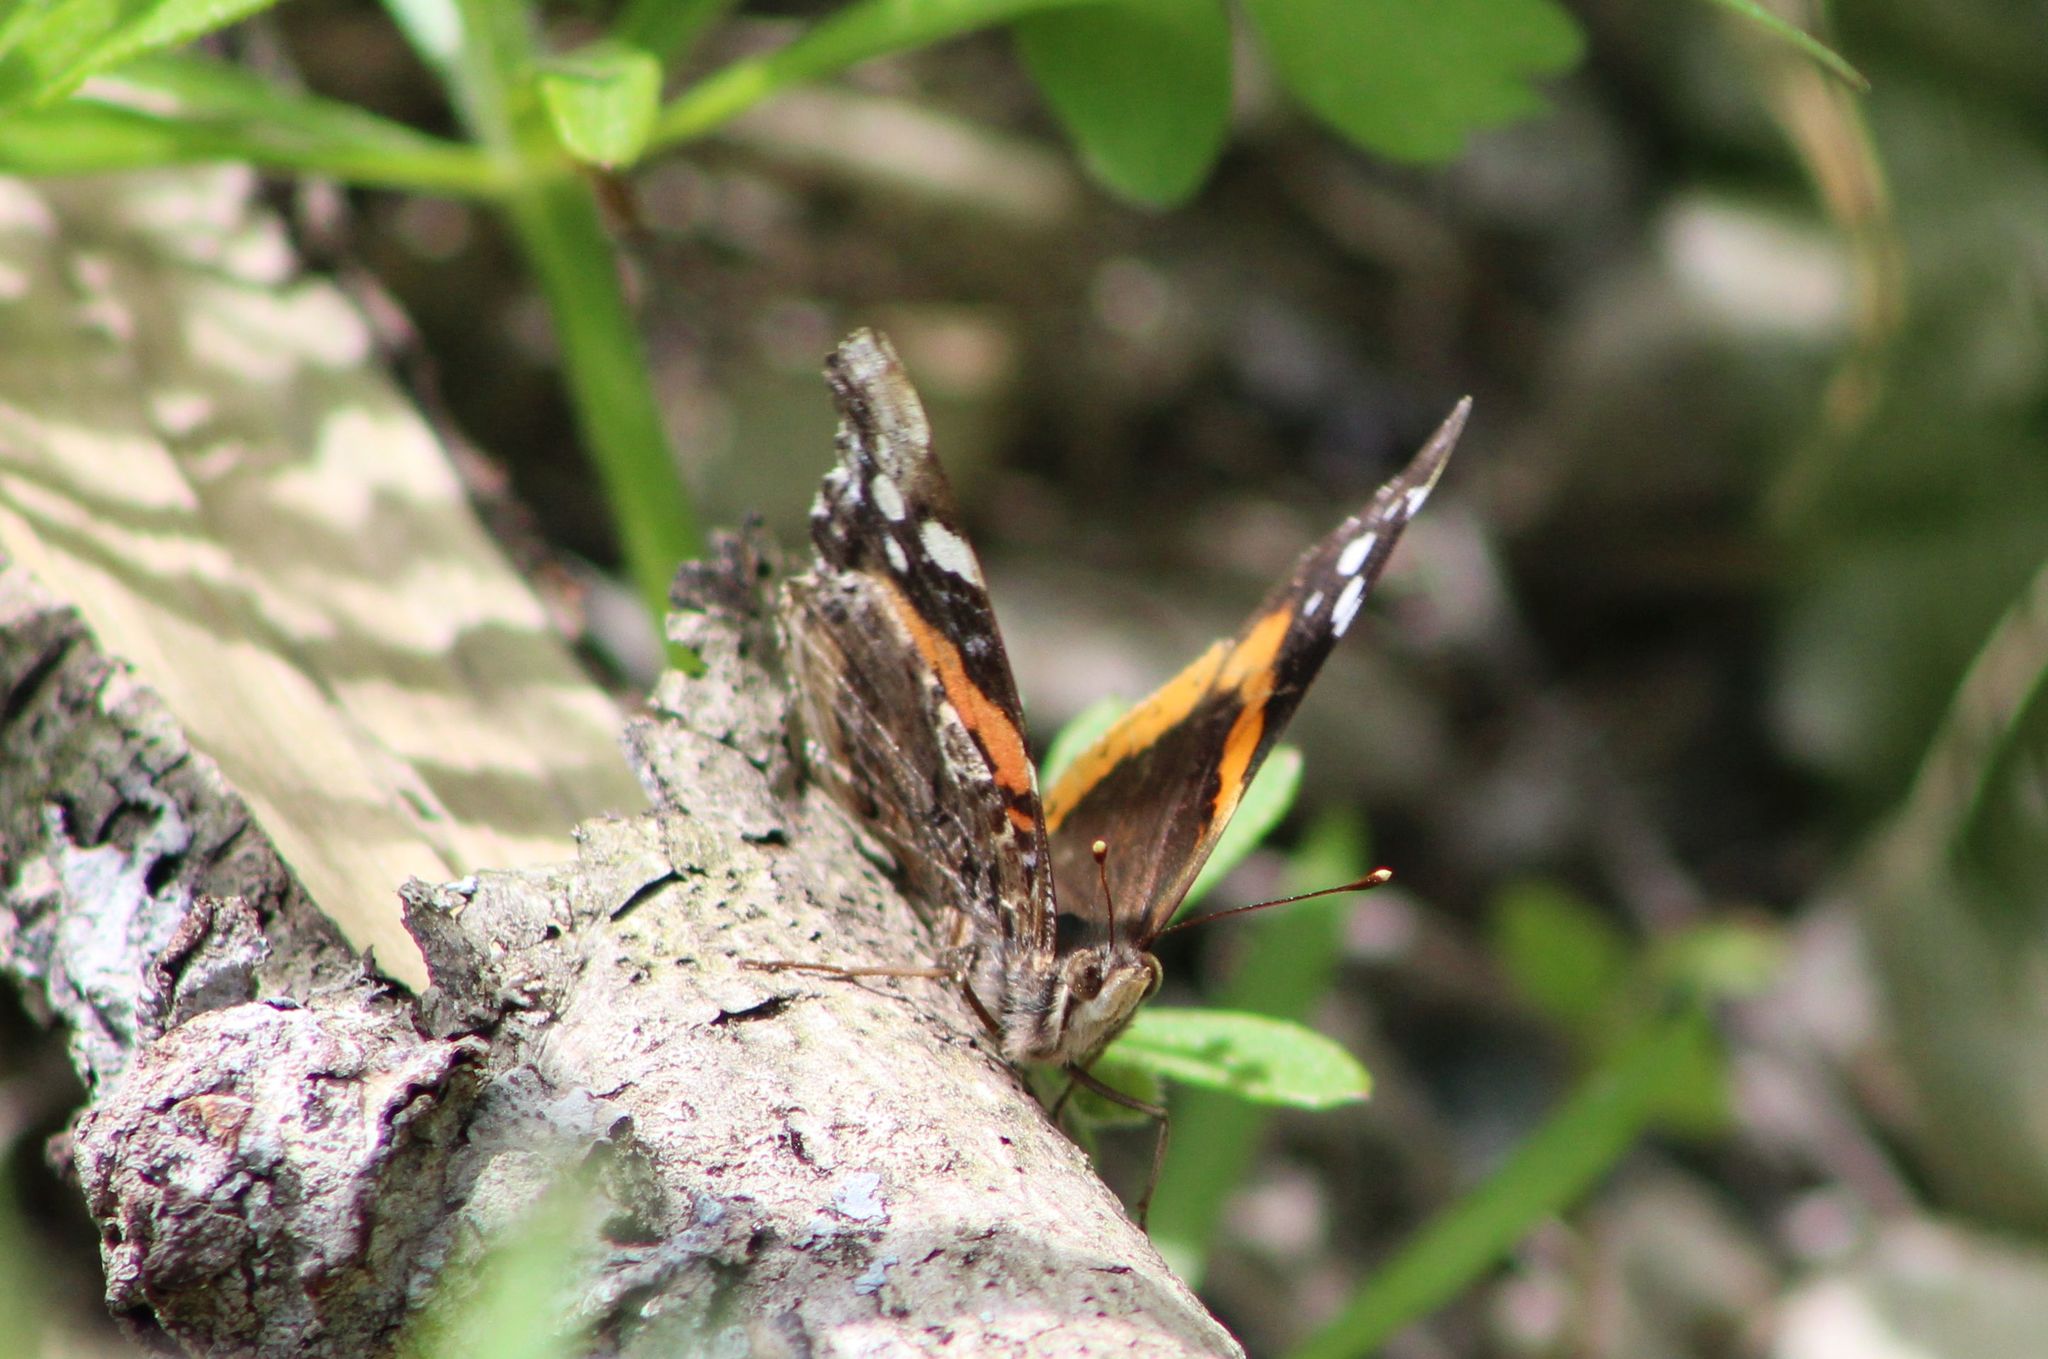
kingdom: Animalia
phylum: Arthropoda
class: Insecta
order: Lepidoptera
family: Nymphalidae
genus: Vanessa
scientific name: Vanessa atalanta
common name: Red admiral
